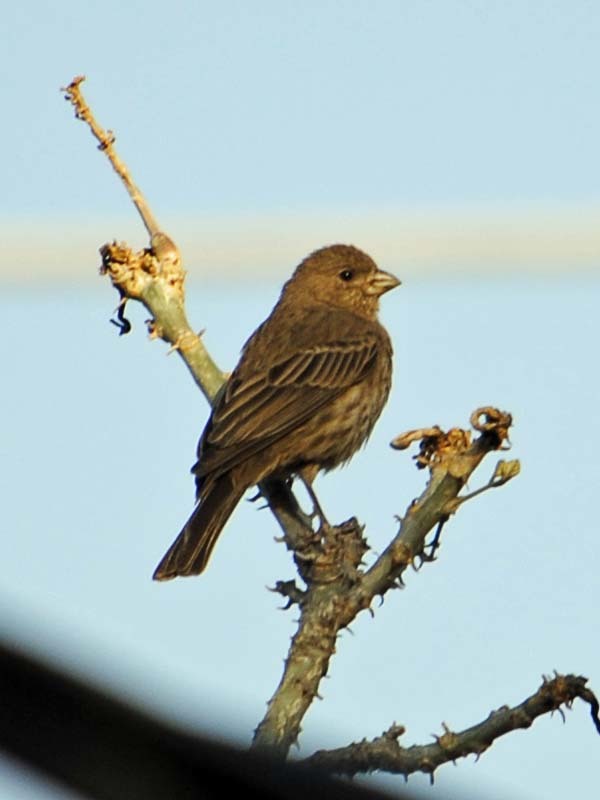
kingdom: Animalia
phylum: Chordata
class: Aves
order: Passeriformes
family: Fringillidae
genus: Haemorhous
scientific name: Haemorhous mexicanus
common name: House finch
